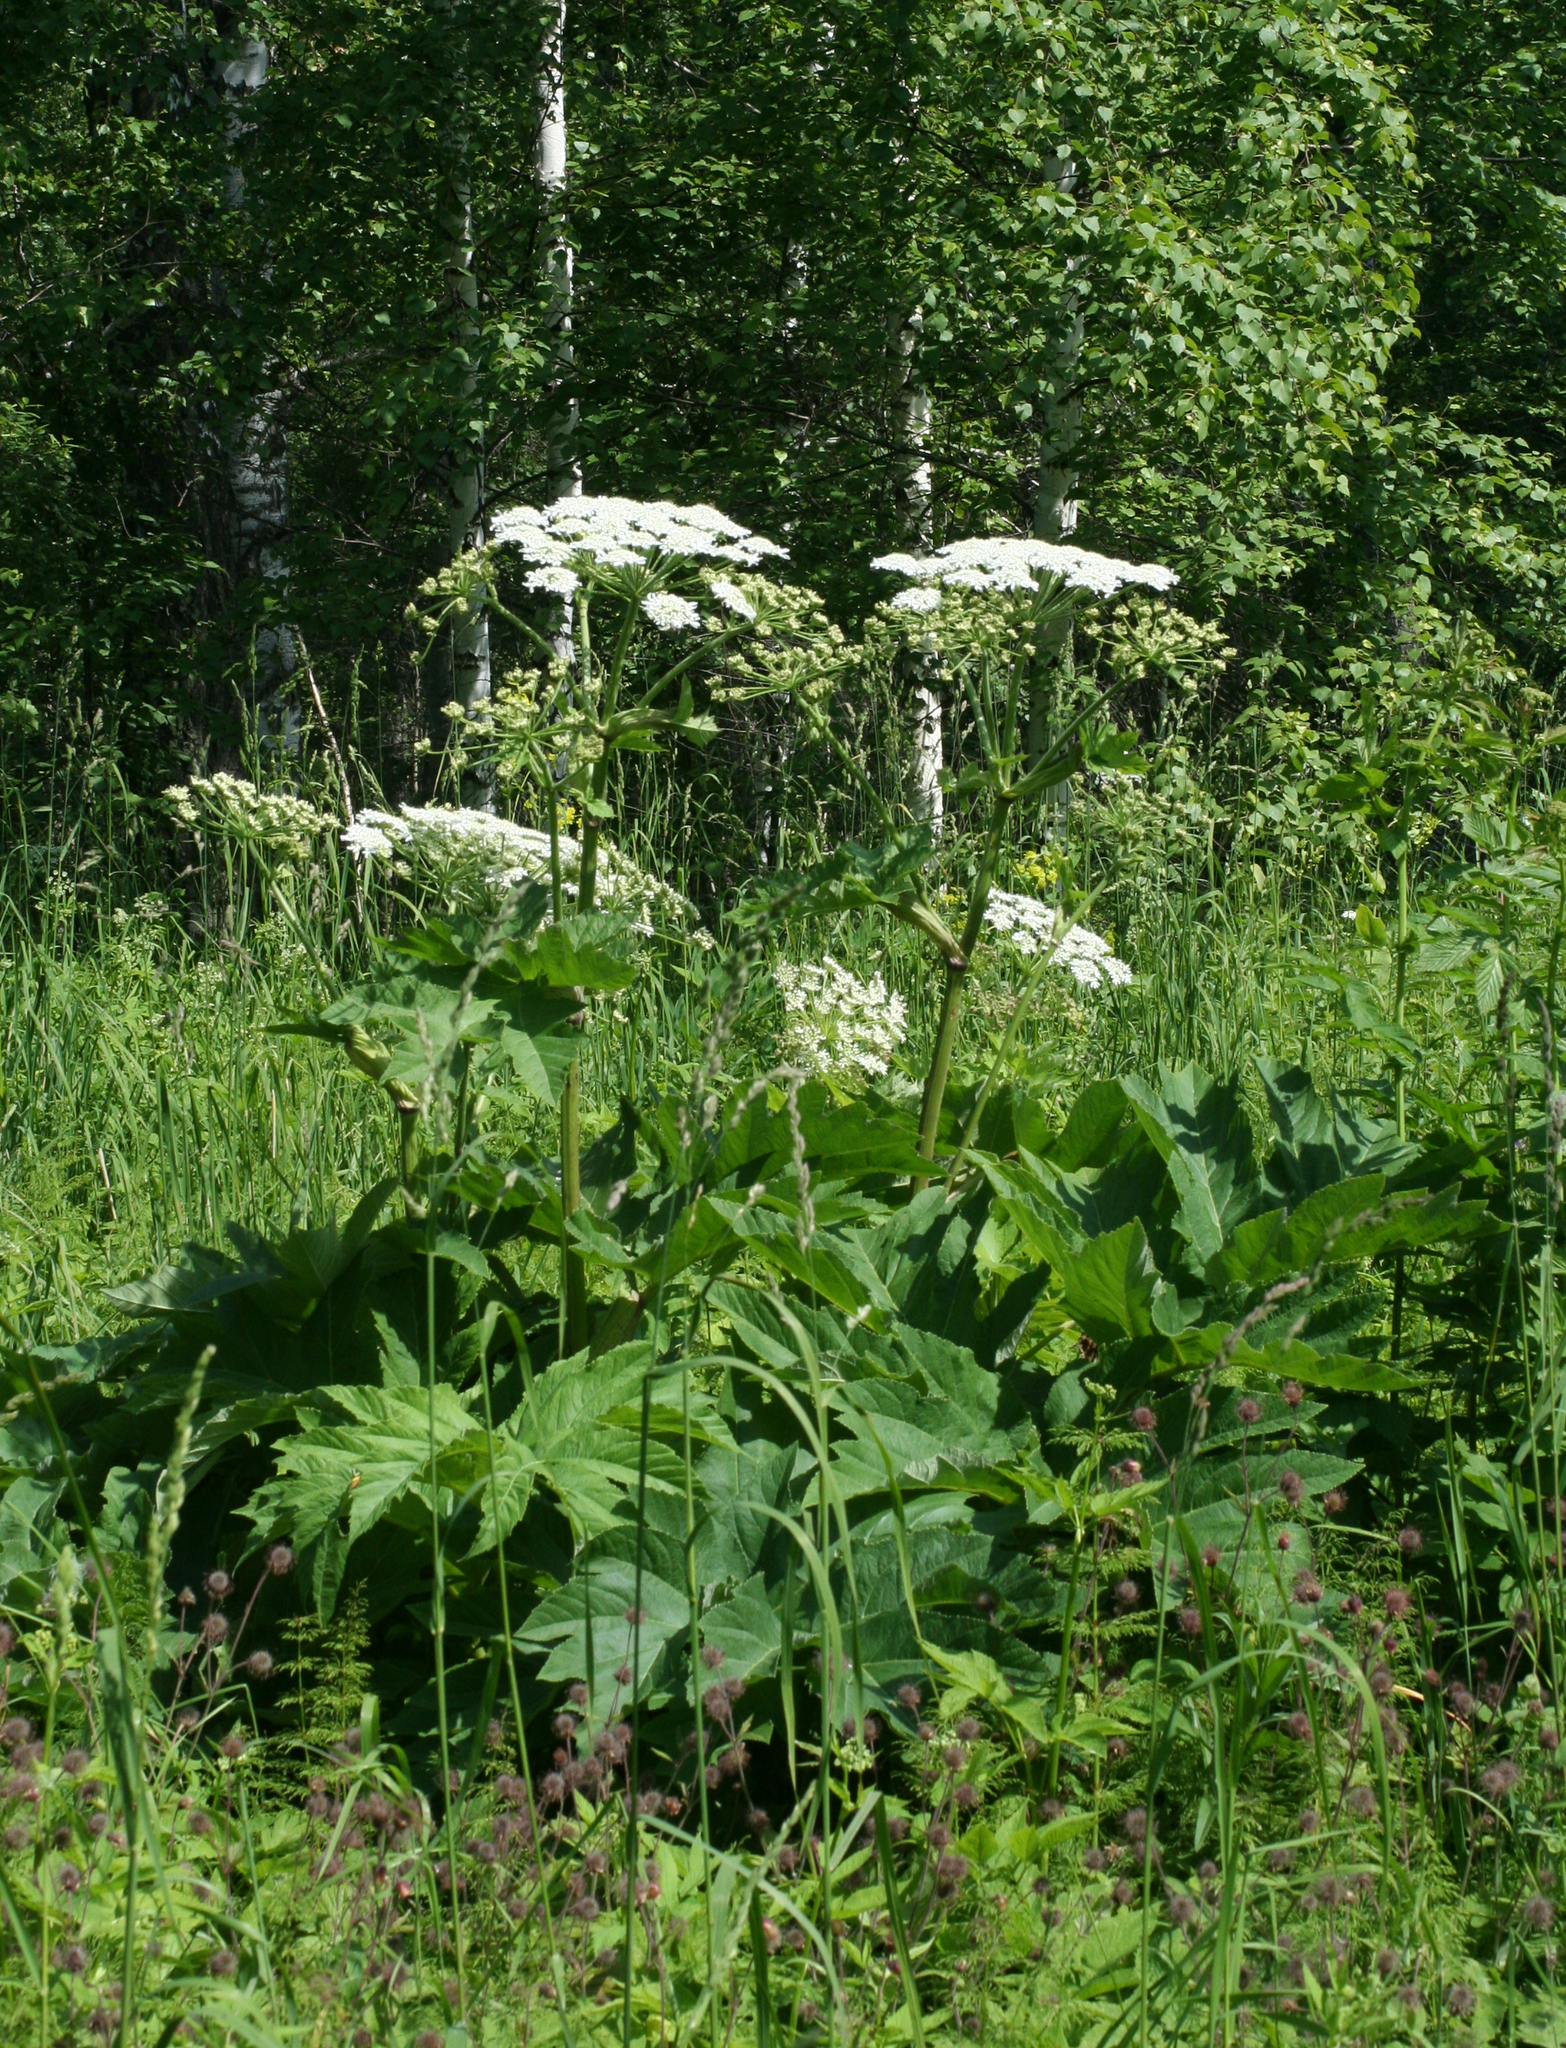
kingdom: Plantae
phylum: Tracheophyta
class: Magnoliopsida
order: Apiales
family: Apiaceae
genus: Heracleum
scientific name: Heracleum dissectum
